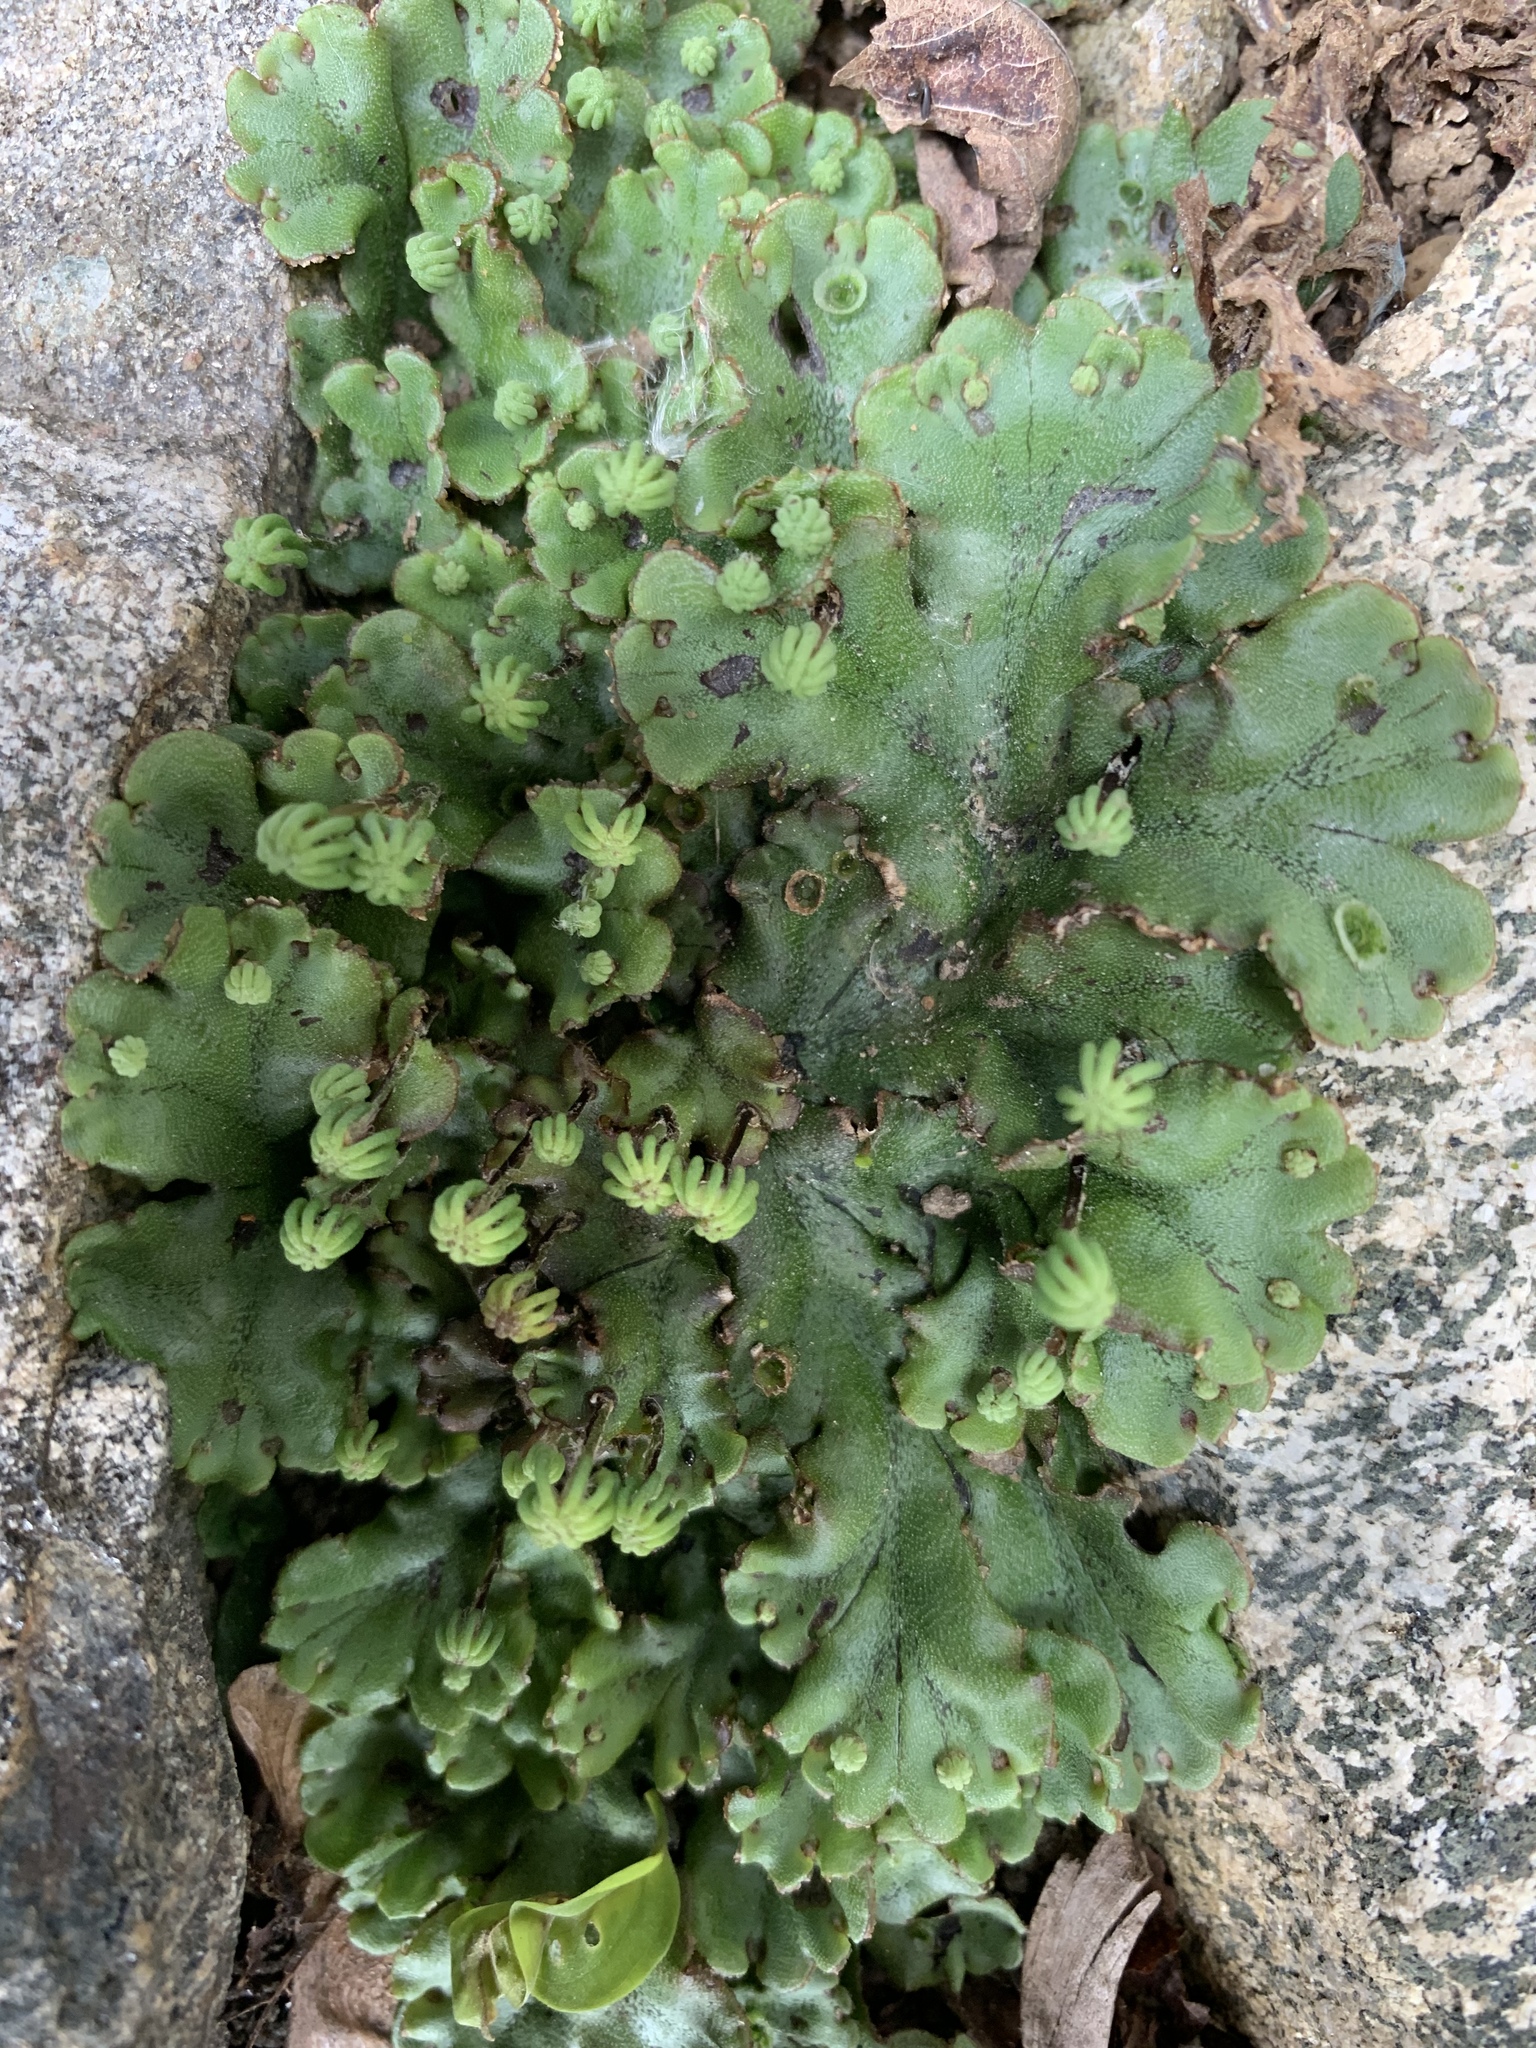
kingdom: Plantae
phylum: Marchantiophyta
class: Marchantiopsida
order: Marchantiales
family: Marchantiaceae
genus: Marchantia
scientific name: Marchantia polymorpha
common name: Common liverwort
